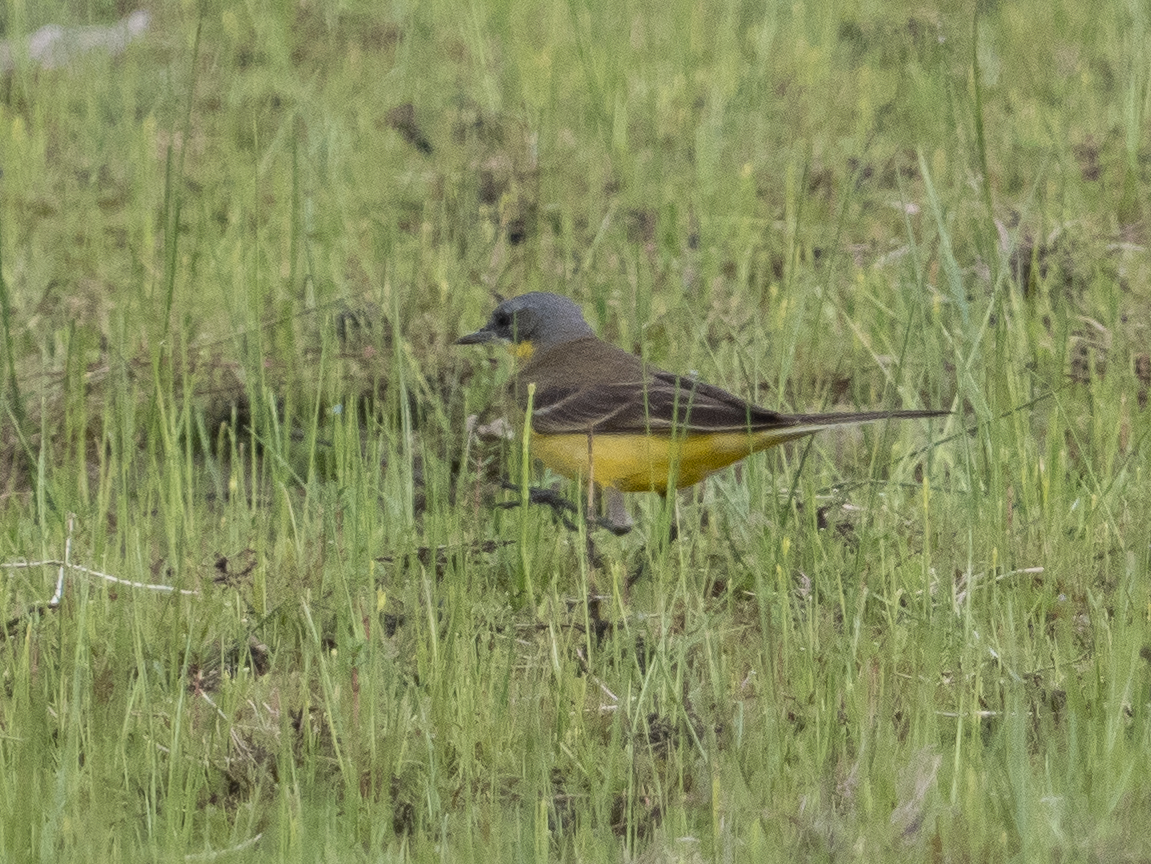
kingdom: Animalia
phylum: Chordata
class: Aves
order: Passeriformes
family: Motacillidae
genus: Motacilla
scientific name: Motacilla flava
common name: Western yellow wagtail
